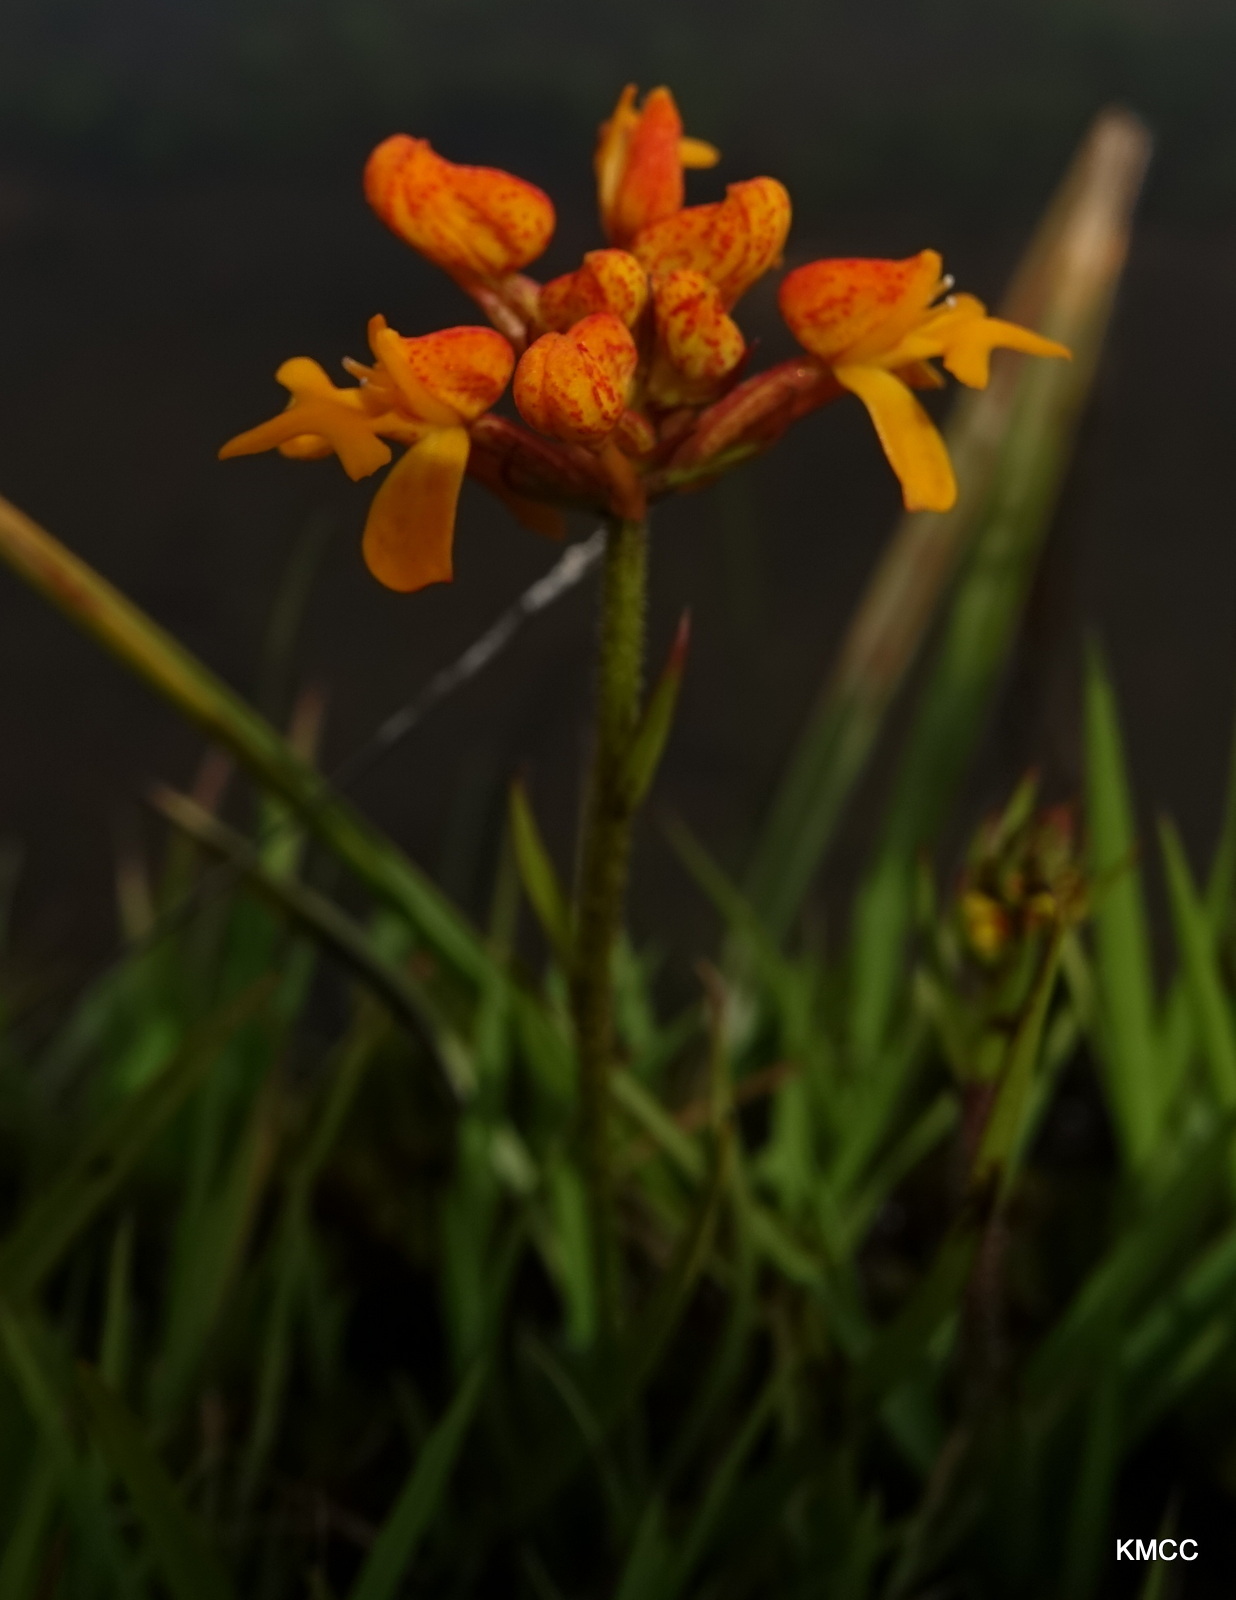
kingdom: Plantae
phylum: Tracheophyta
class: Liliopsida
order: Asparagales
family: Orchidaceae
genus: Cynorkis
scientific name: Cynorkis cinnabarina
